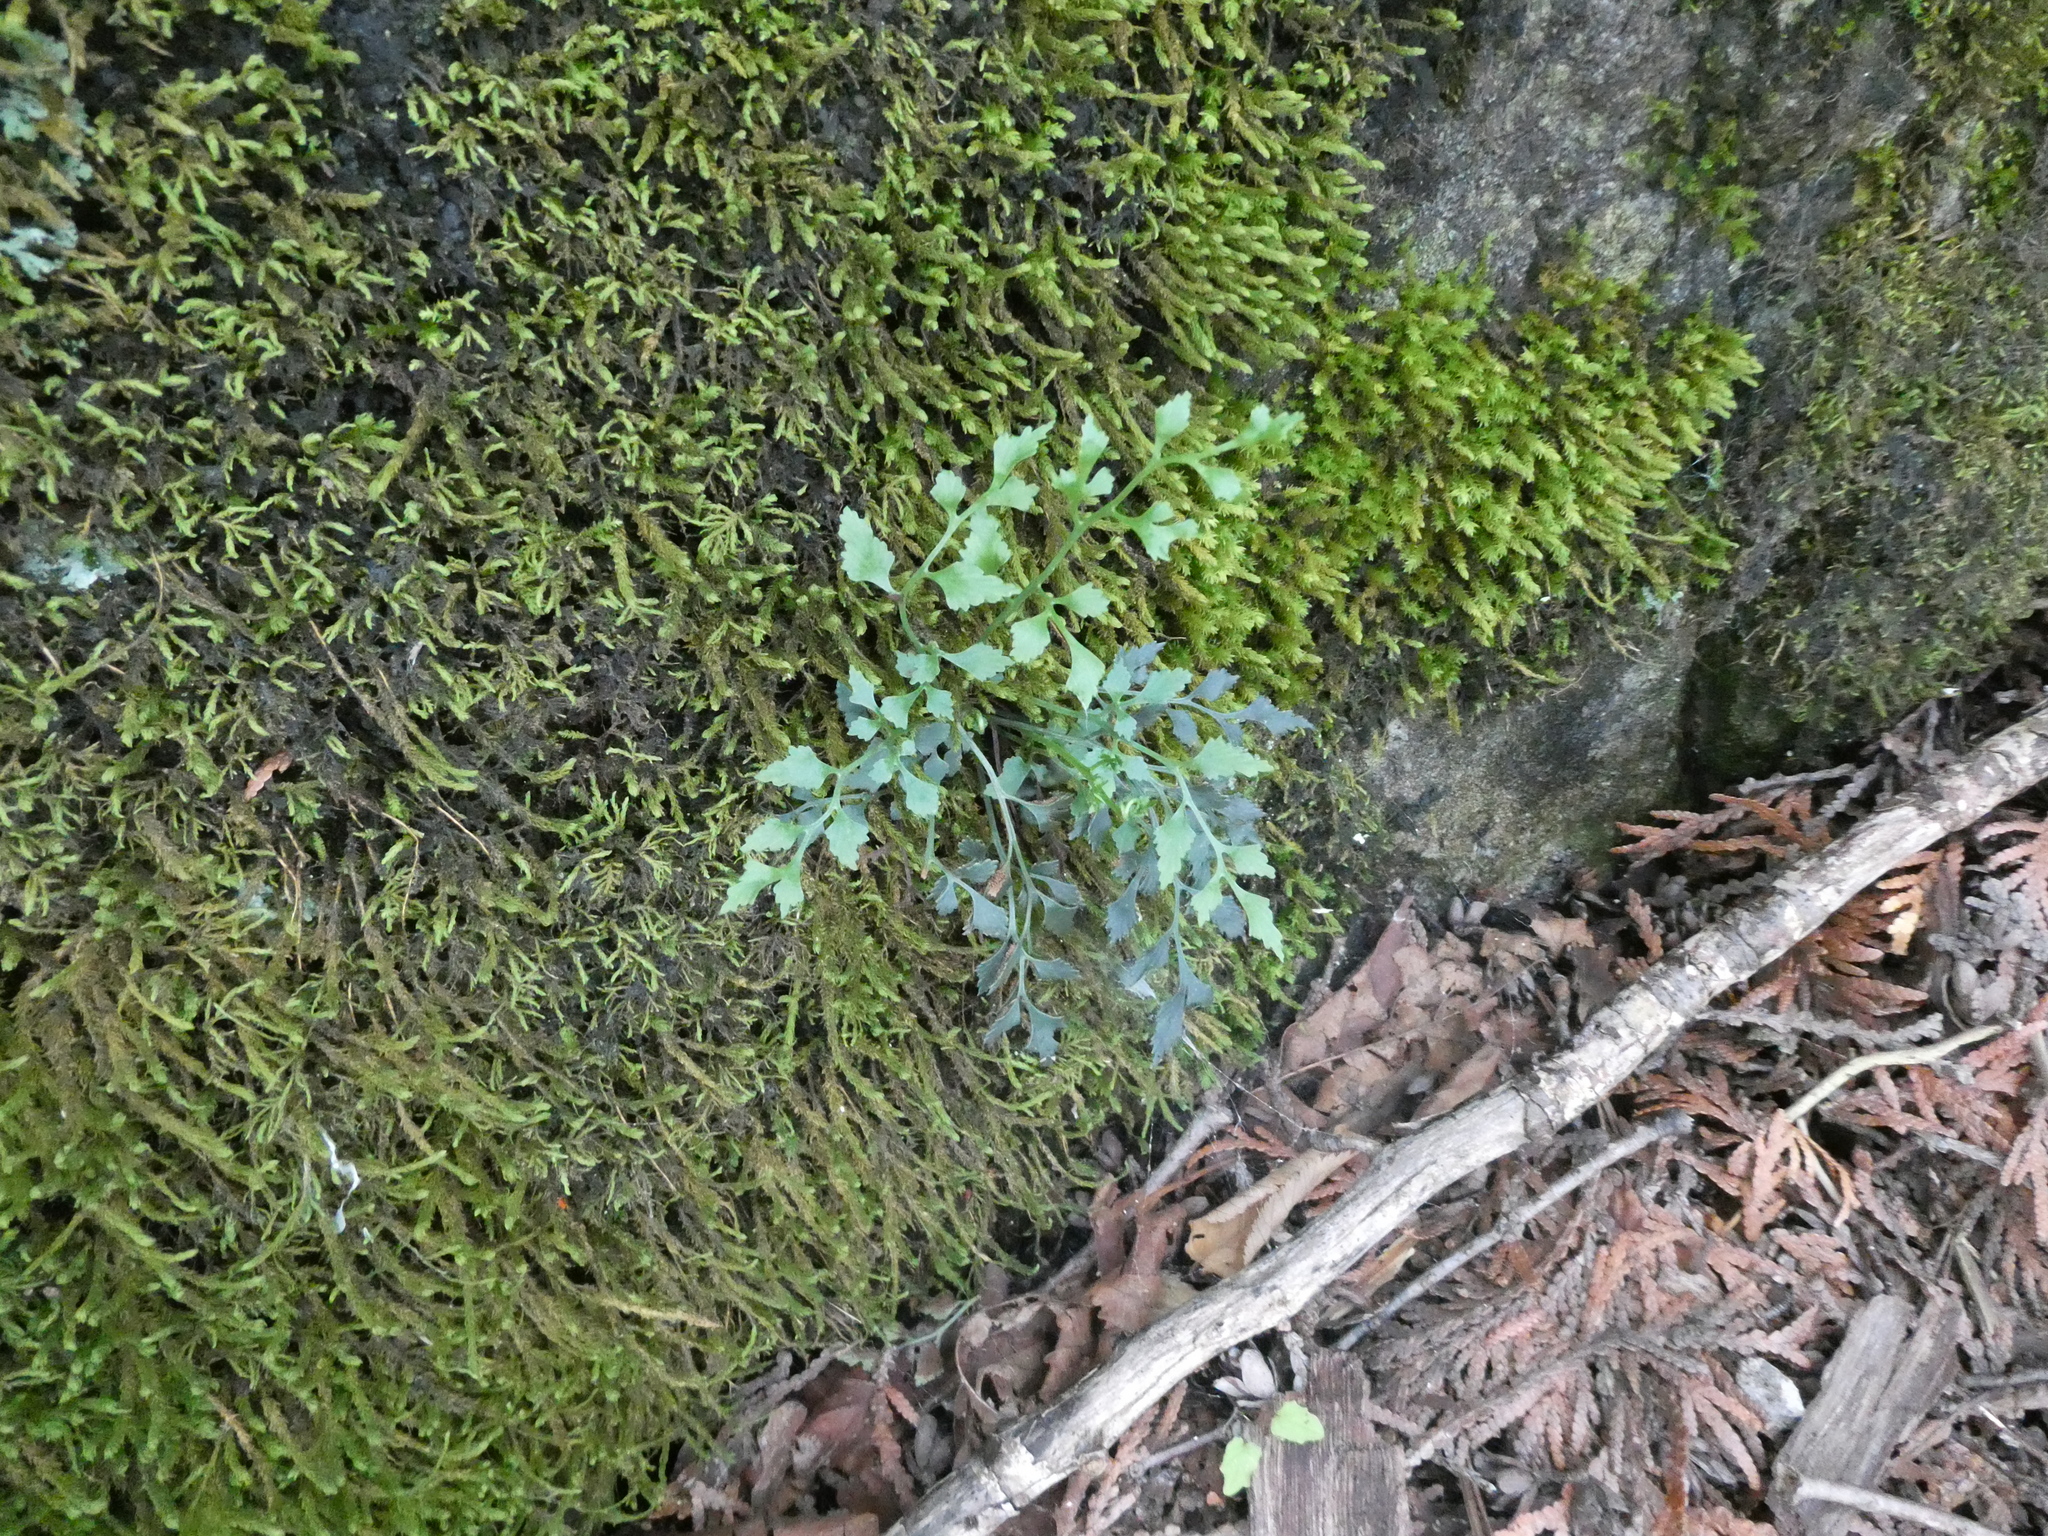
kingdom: Plantae
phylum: Tracheophyta
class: Polypodiopsida
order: Polypodiales
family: Aspleniaceae
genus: Asplenium
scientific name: Asplenium ruta-muraria
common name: Wall-rue
